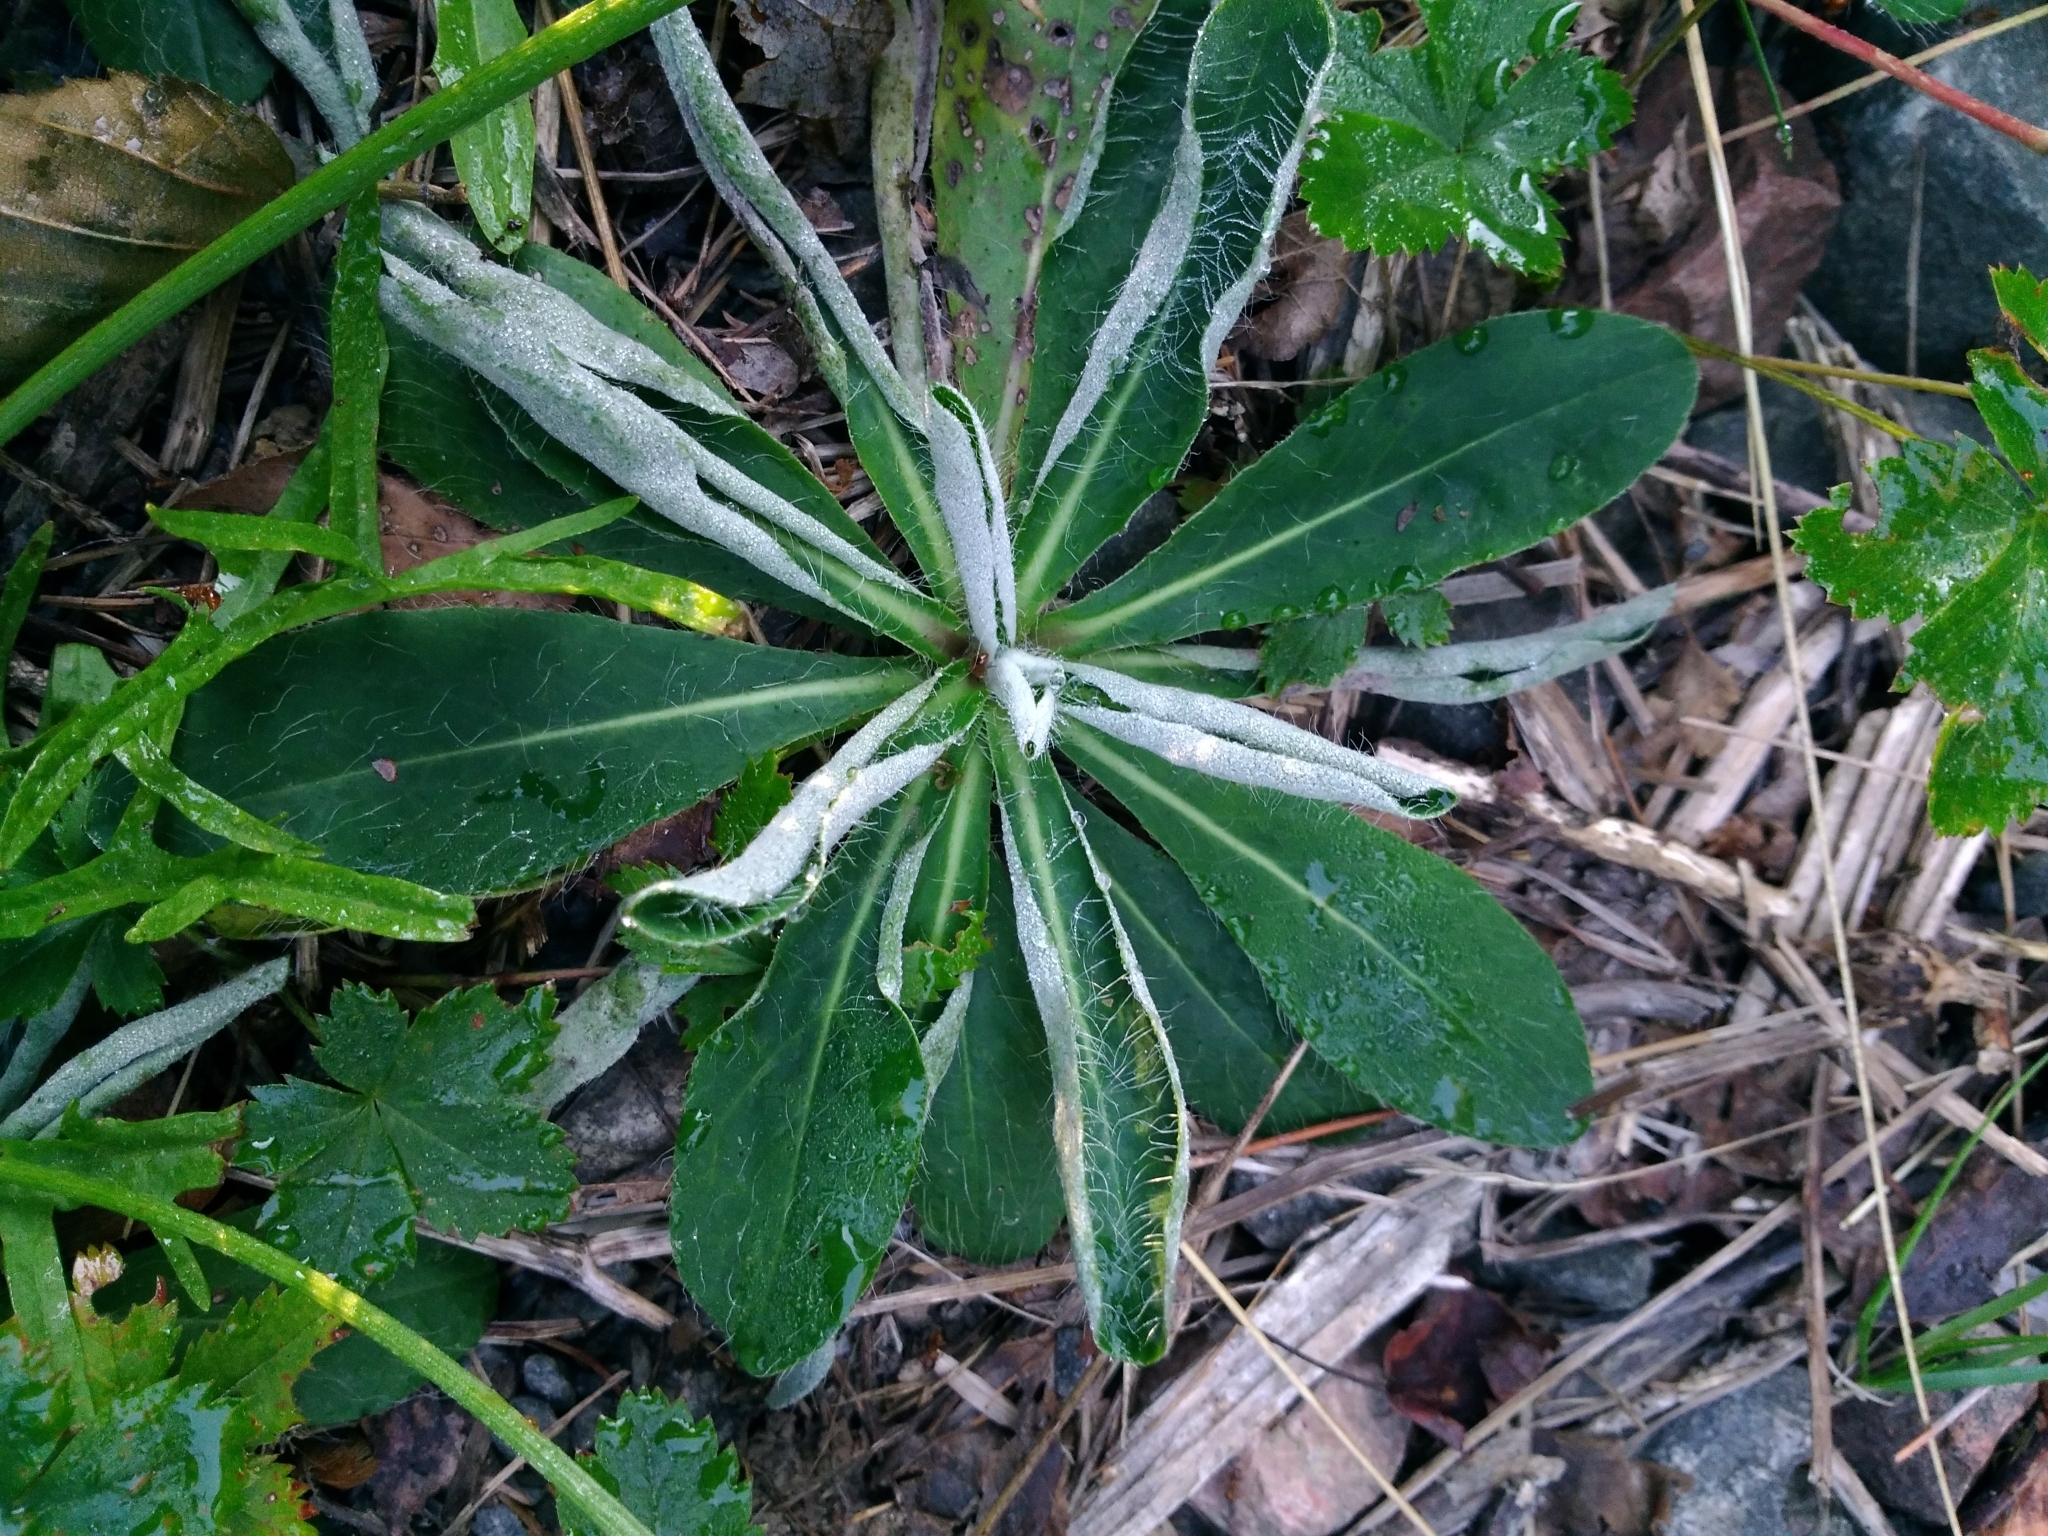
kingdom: Plantae
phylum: Tracheophyta
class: Magnoliopsida
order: Asterales
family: Asteraceae
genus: Pilosella
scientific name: Pilosella officinarum
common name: Mouse-ear hawkweed
